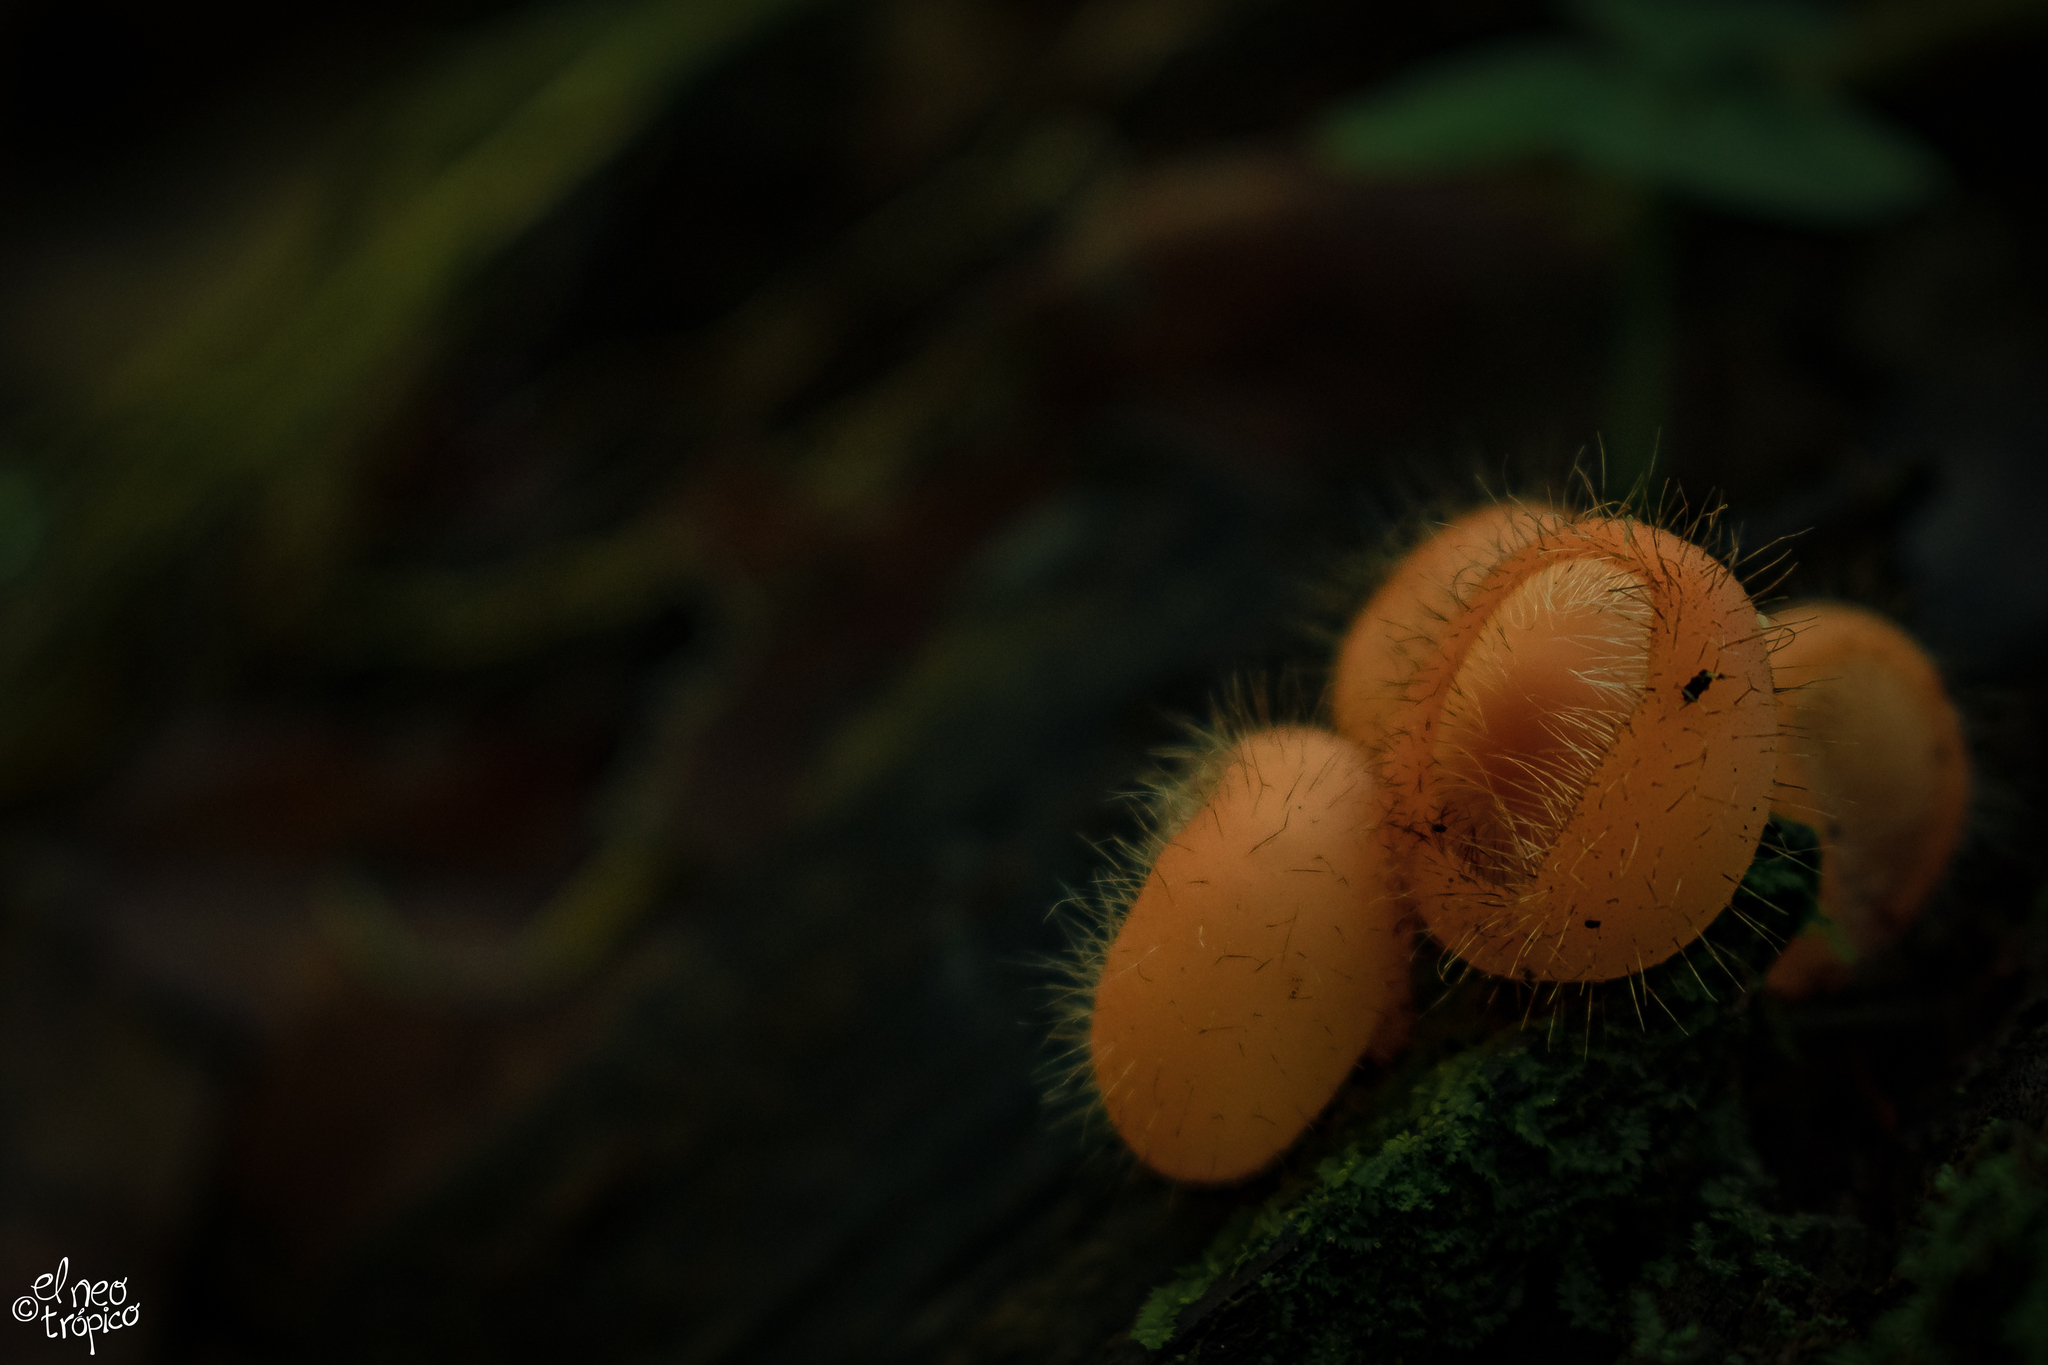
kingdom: Fungi
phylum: Ascomycota
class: Pezizomycetes
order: Pezizales
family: Sarcoscyphaceae
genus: Cookeina
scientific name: Cookeina tricholoma
